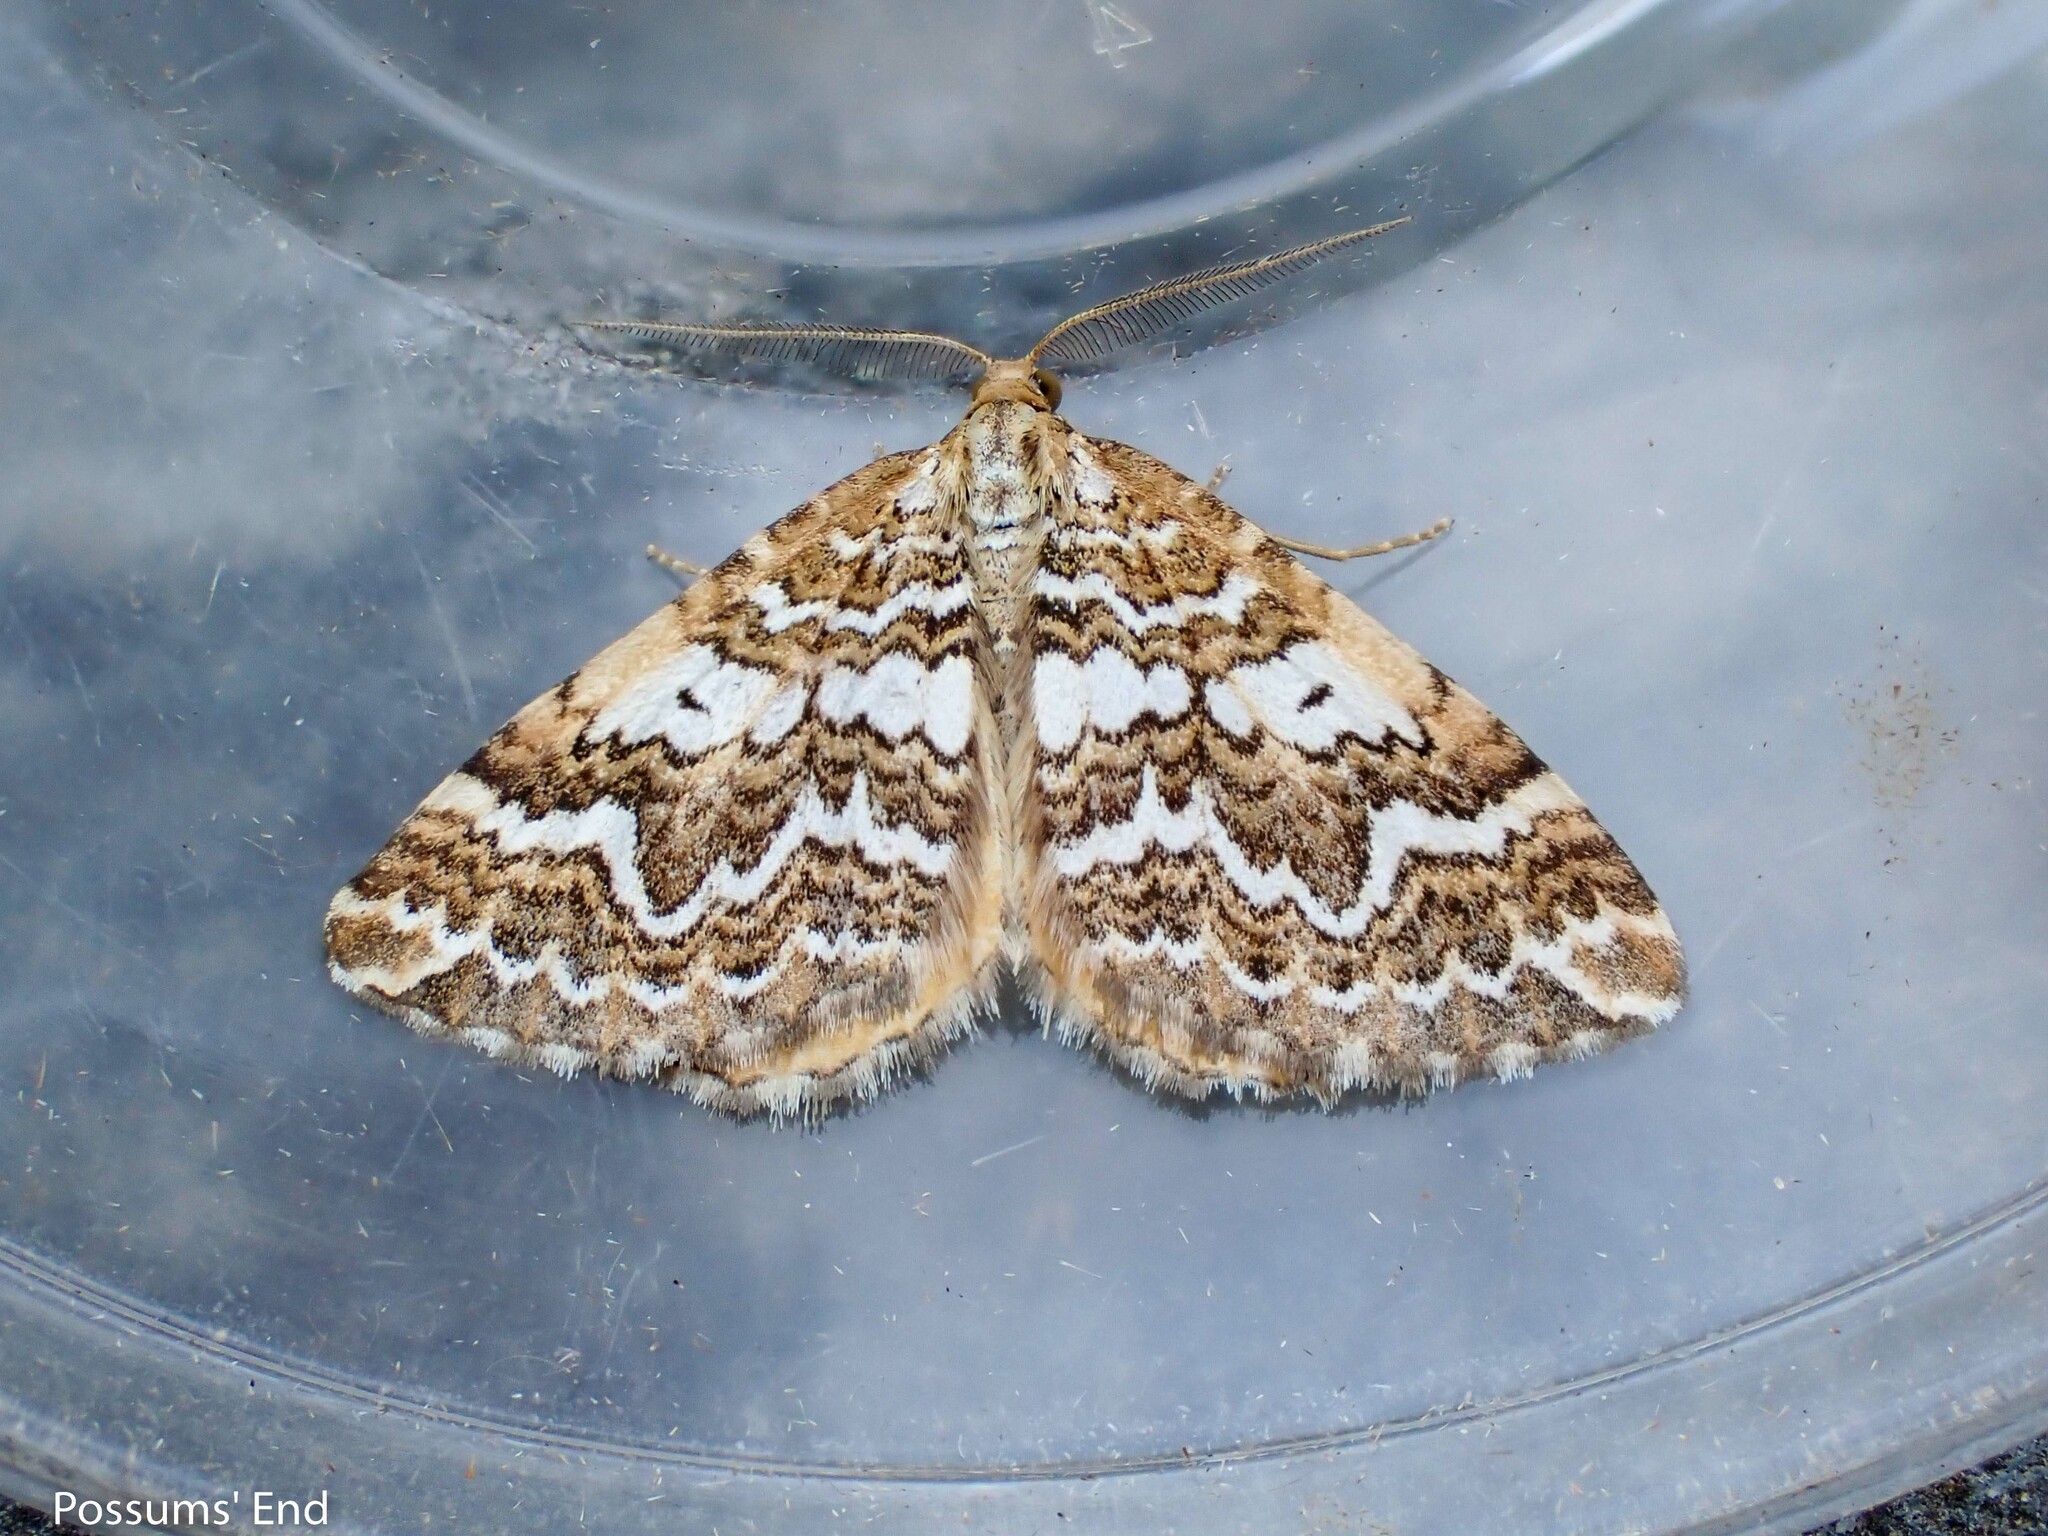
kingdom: Animalia
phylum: Arthropoda
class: Insecta
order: Lepidoptera
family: Geometridae
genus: Asaphodes
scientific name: Asaphodes clarata
